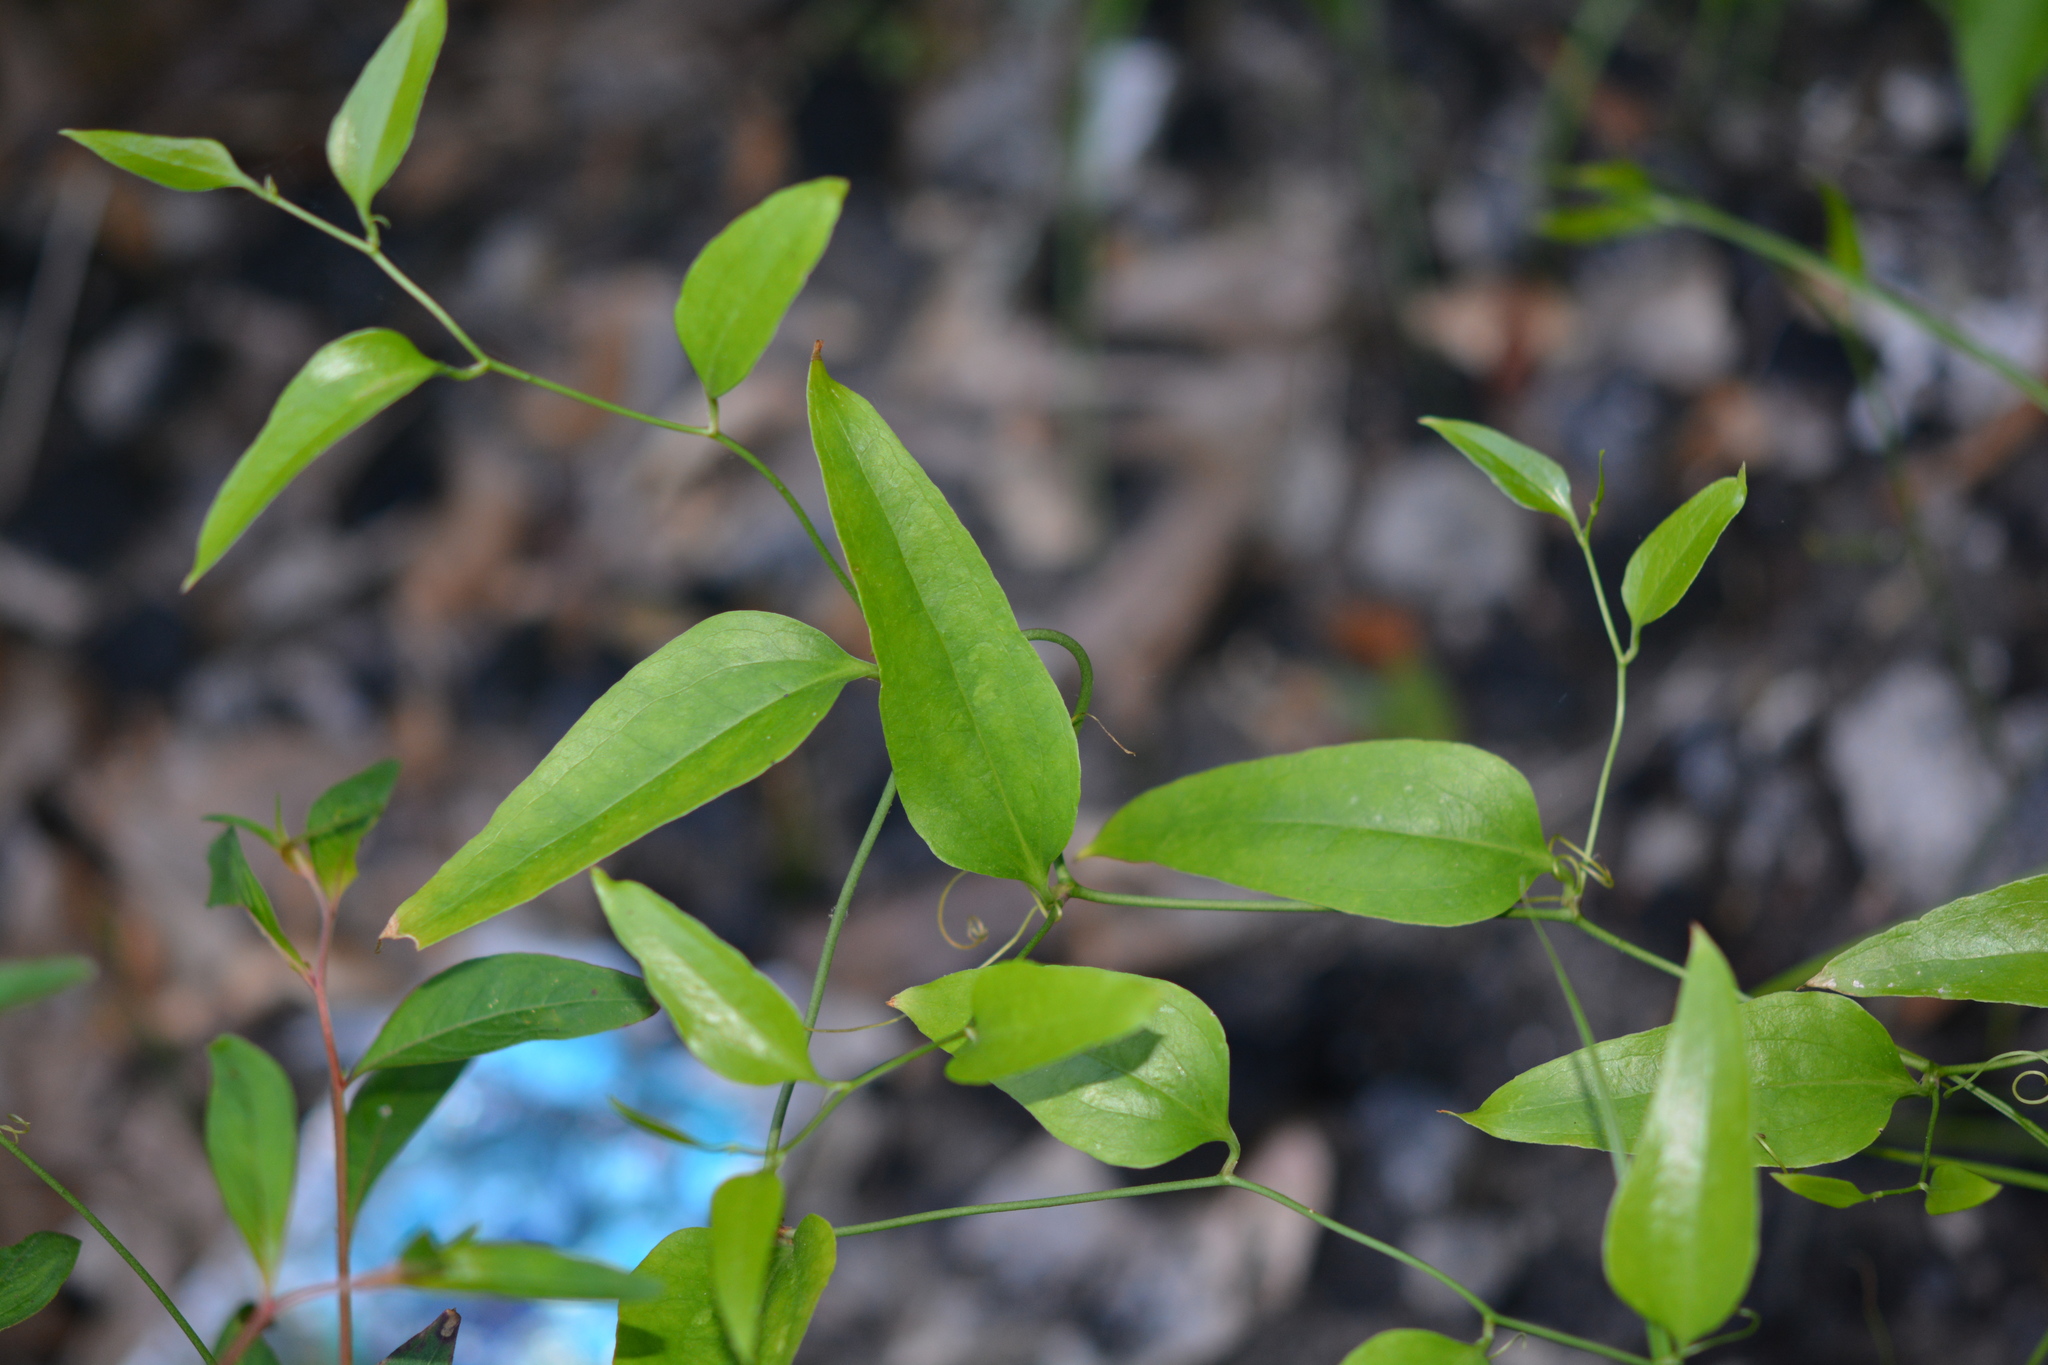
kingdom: Plantae
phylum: Tracheophyta
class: Liliopsida
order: Liliales
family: Smilacaceae
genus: Smilax
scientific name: Smilax maritima
